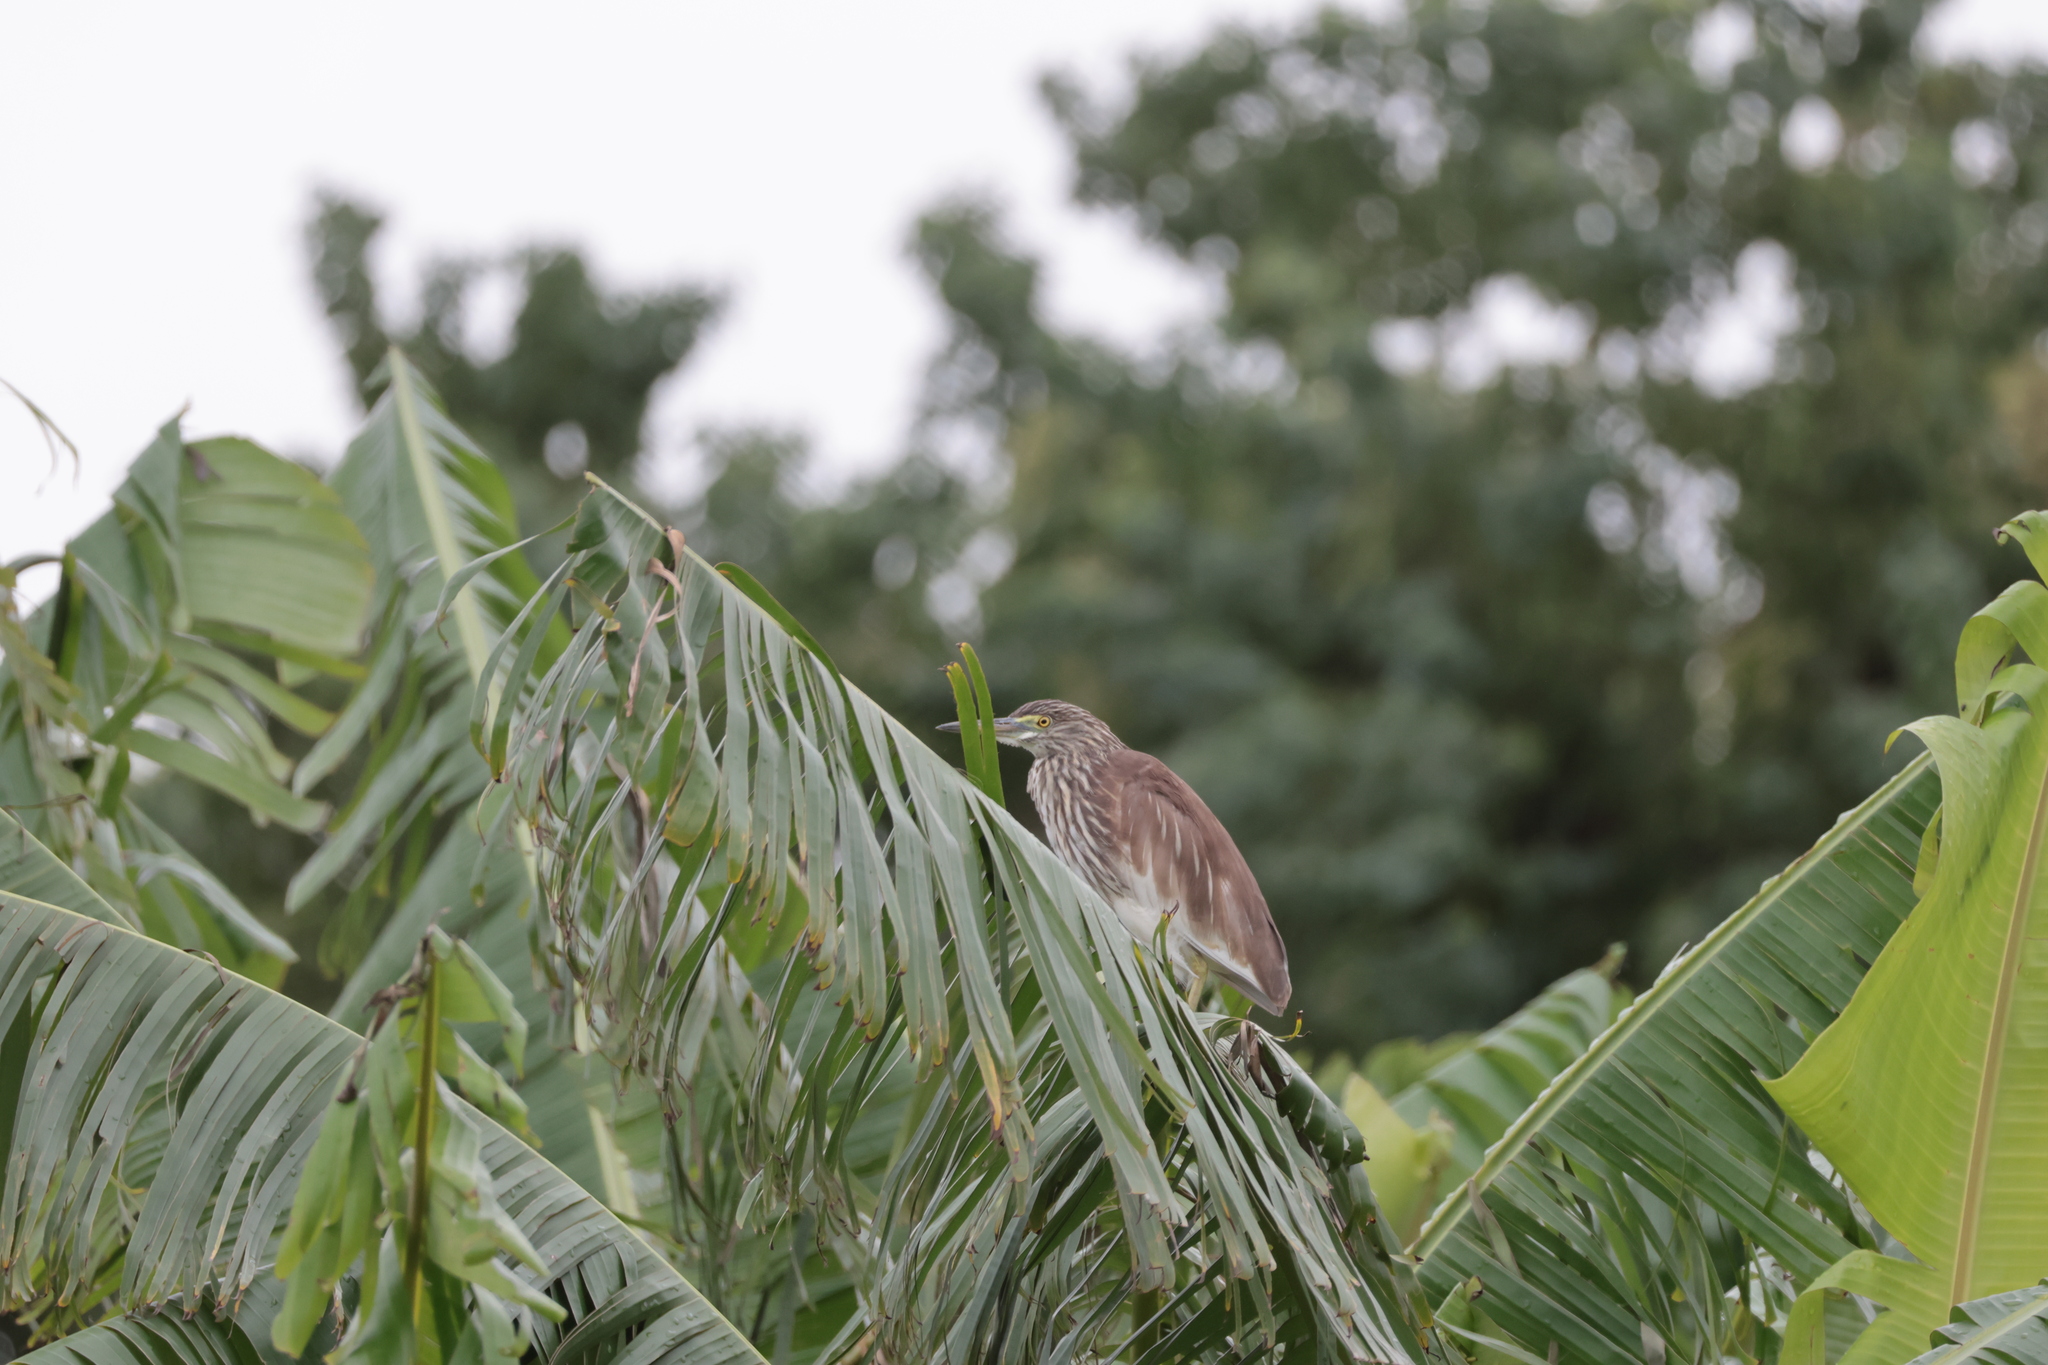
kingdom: Animalia
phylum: Chordata
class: Aves
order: Pelecaniformes
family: Ardeidae
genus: Ardeola
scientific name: Ardeola bacchus
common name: Chinese pond heron
